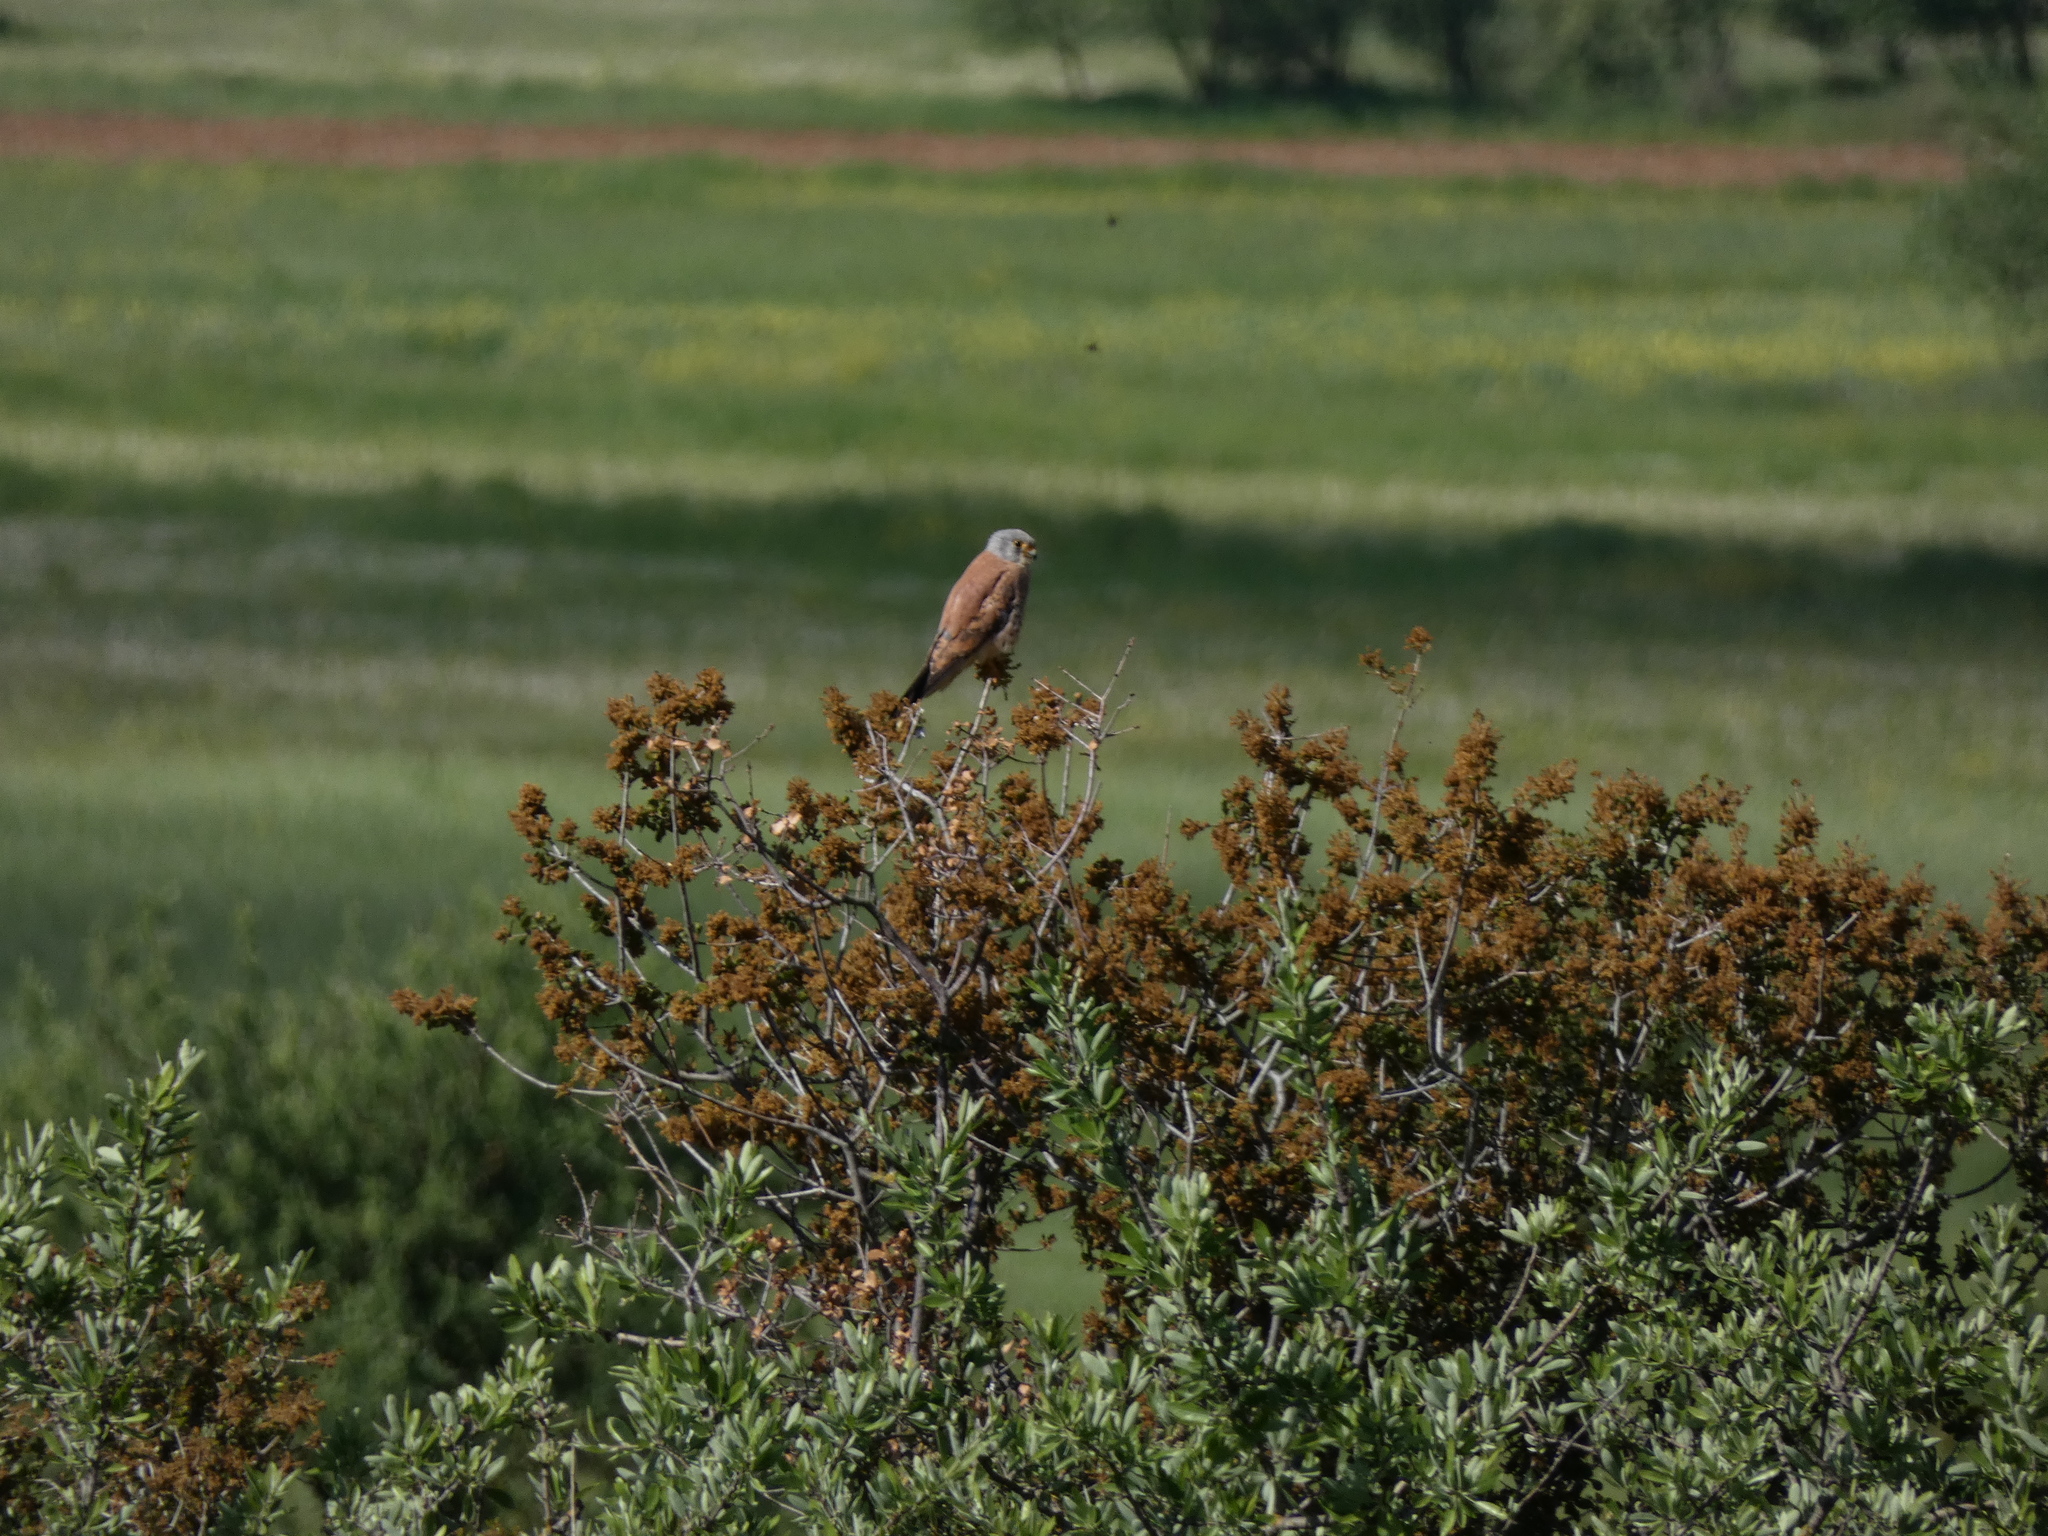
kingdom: Animalia
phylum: Chordata
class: Aves
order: Falconiformes
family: Falconidae
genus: Falco
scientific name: Falco naumanni
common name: Lesser kestrel
